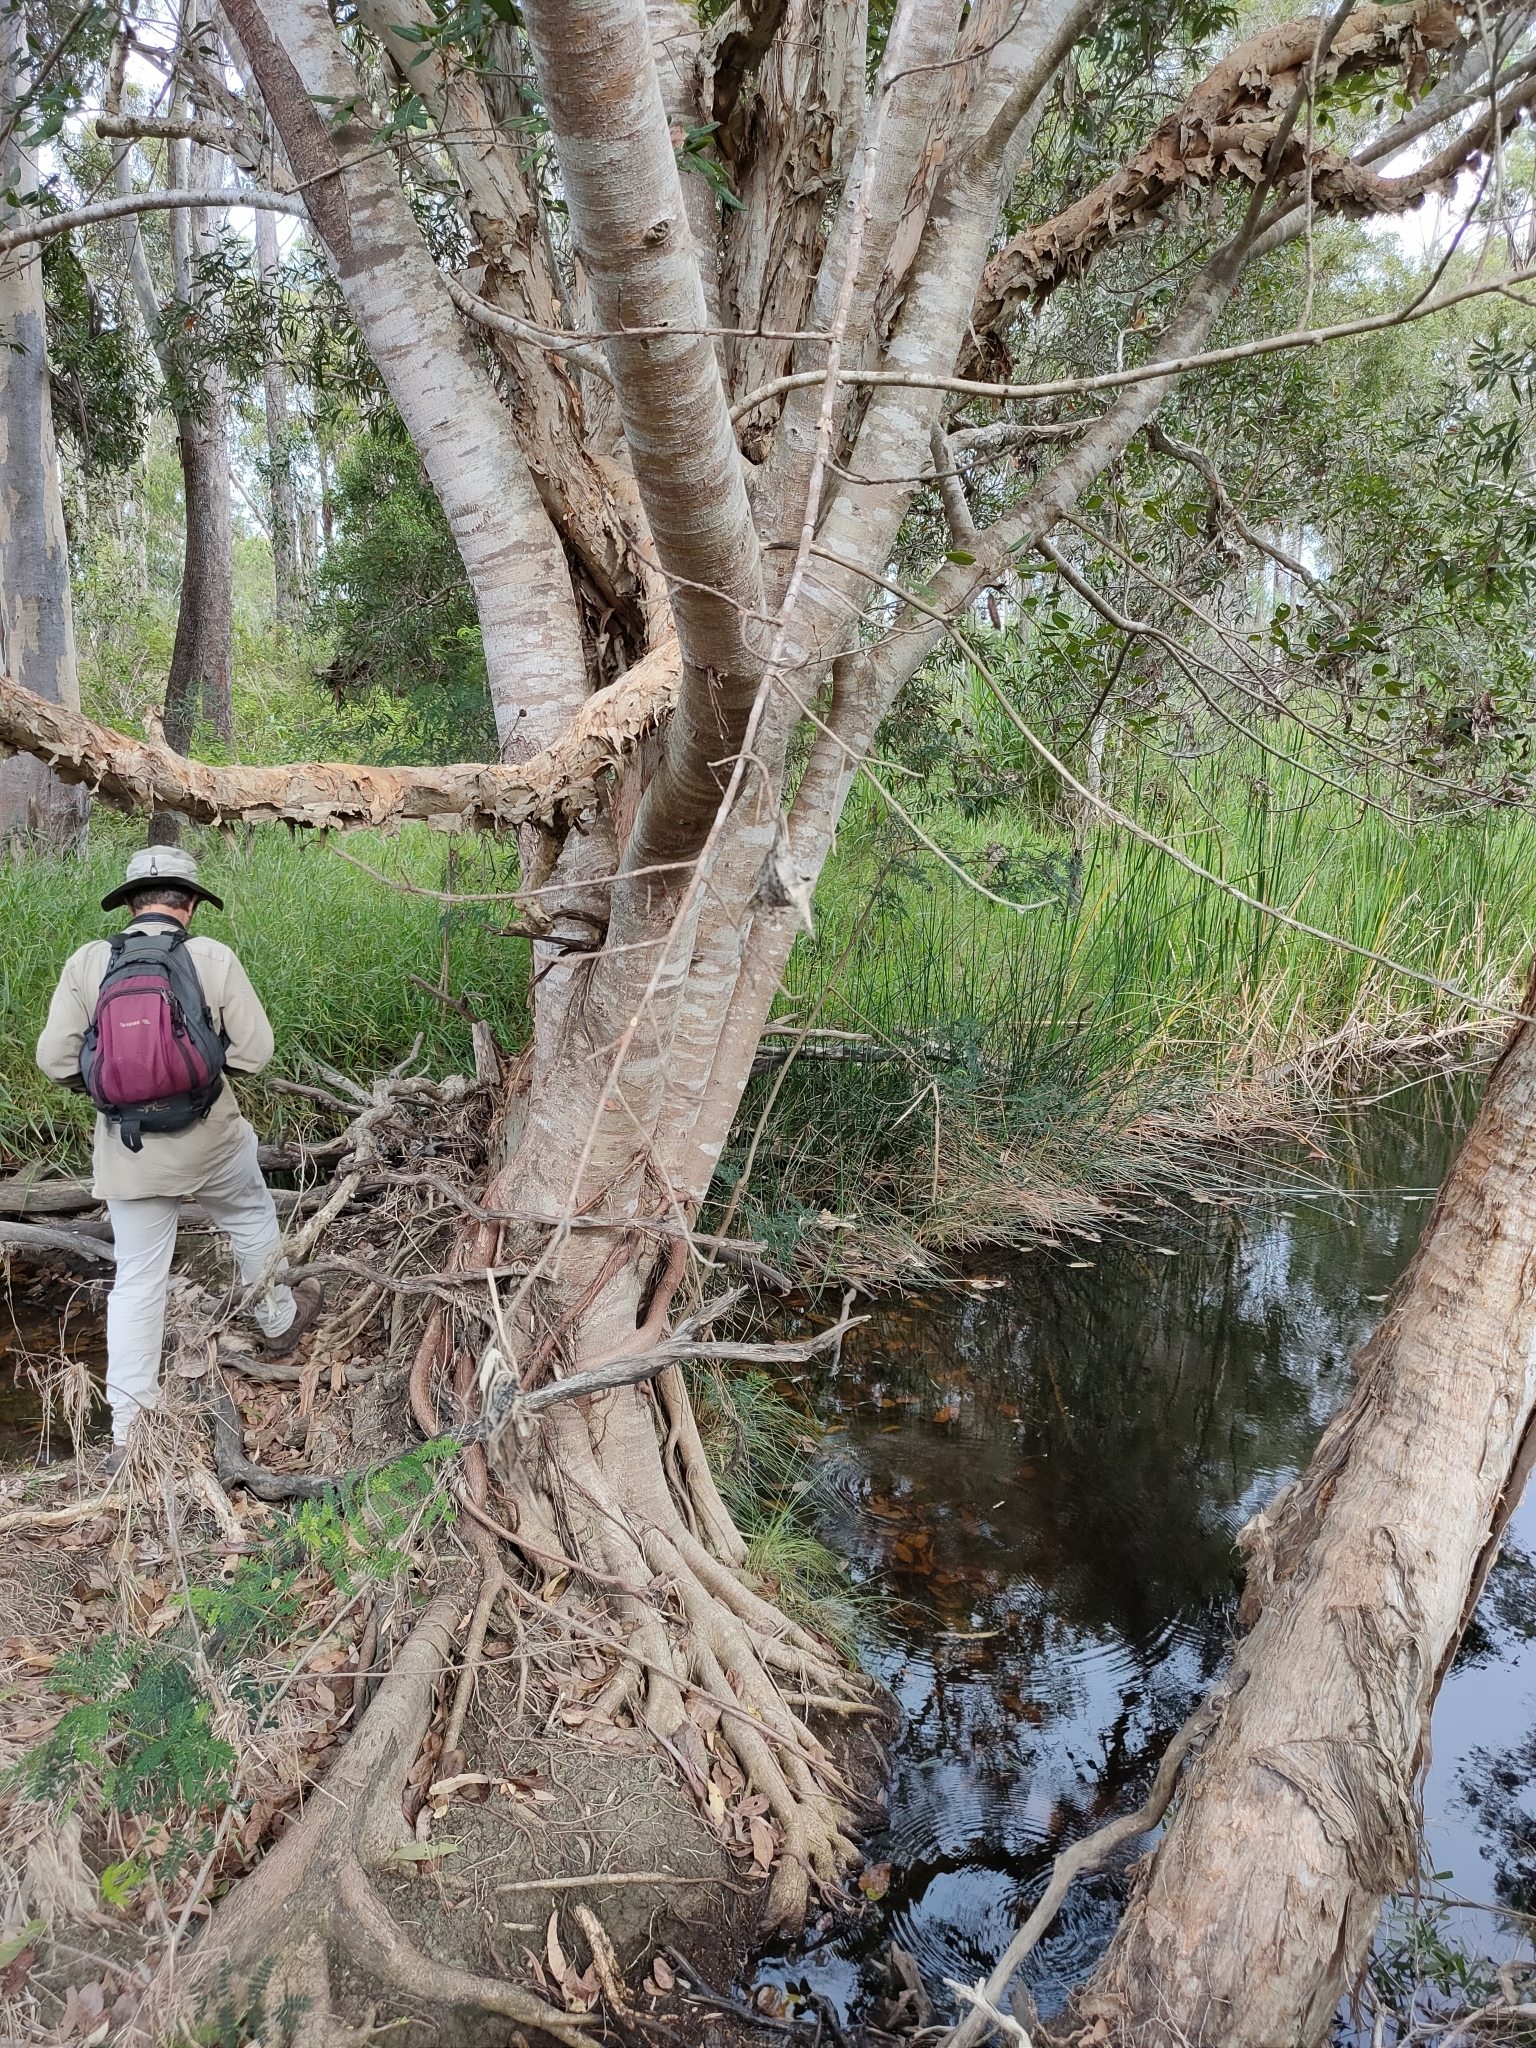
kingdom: Plantae
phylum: Tracheophyta
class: Magnoliopsida
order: Rosales
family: Moraceae
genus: Ficus
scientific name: Ficus virens
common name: Spotted fig
